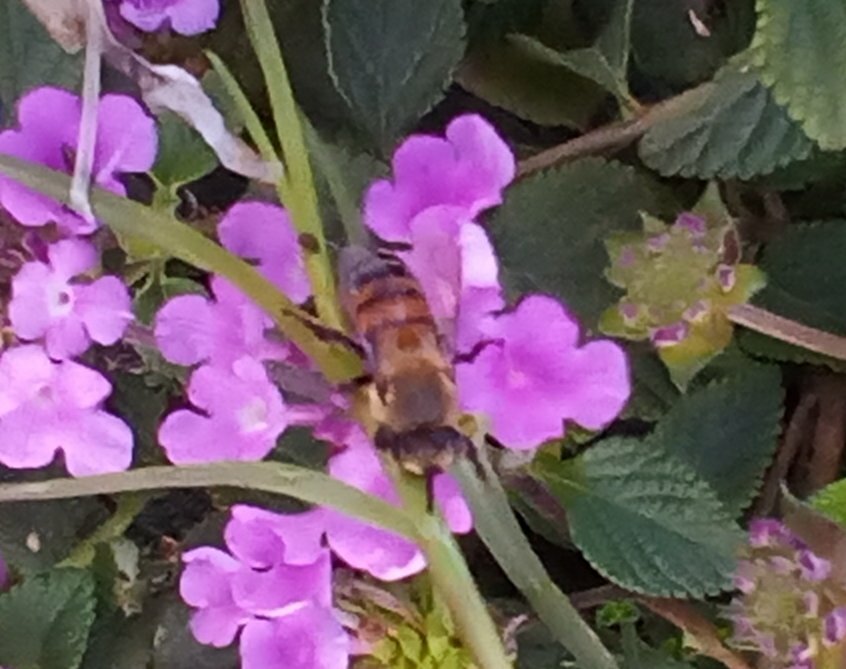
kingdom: Animalia
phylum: Arthropoda
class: Insecta
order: Hymenoptera
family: Apidae
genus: Apis
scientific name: Apis mellifera
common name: Honey bee
